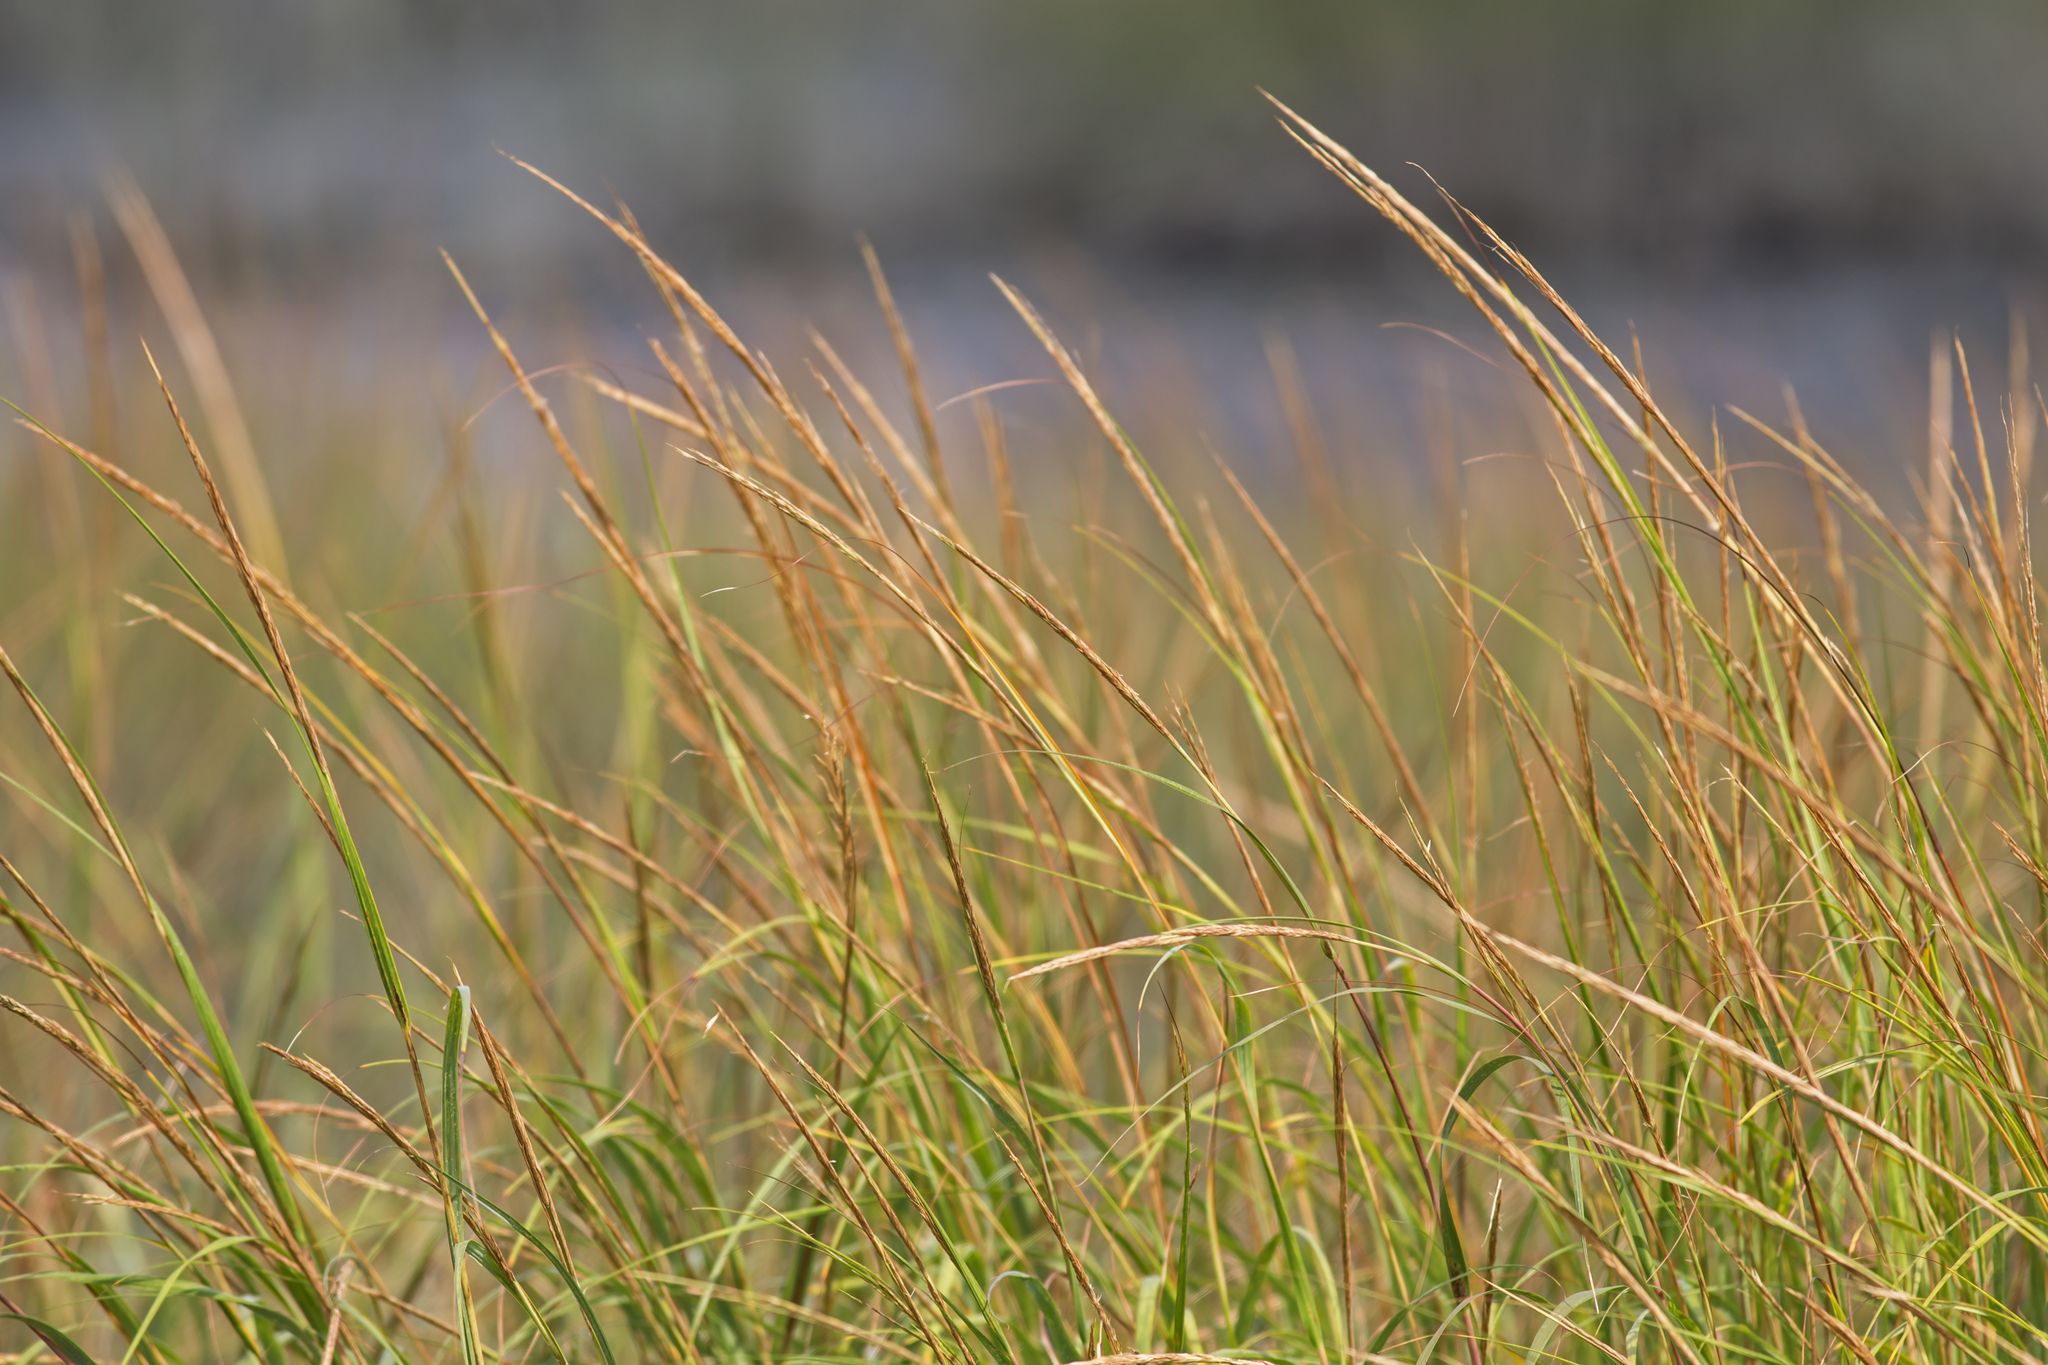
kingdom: Plantae
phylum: Tracheophyta
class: Liliopsida
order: Poales
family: Poaceae
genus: Sporobolus
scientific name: Sporobolus alterniflorus
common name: Atlantic cordgrass
